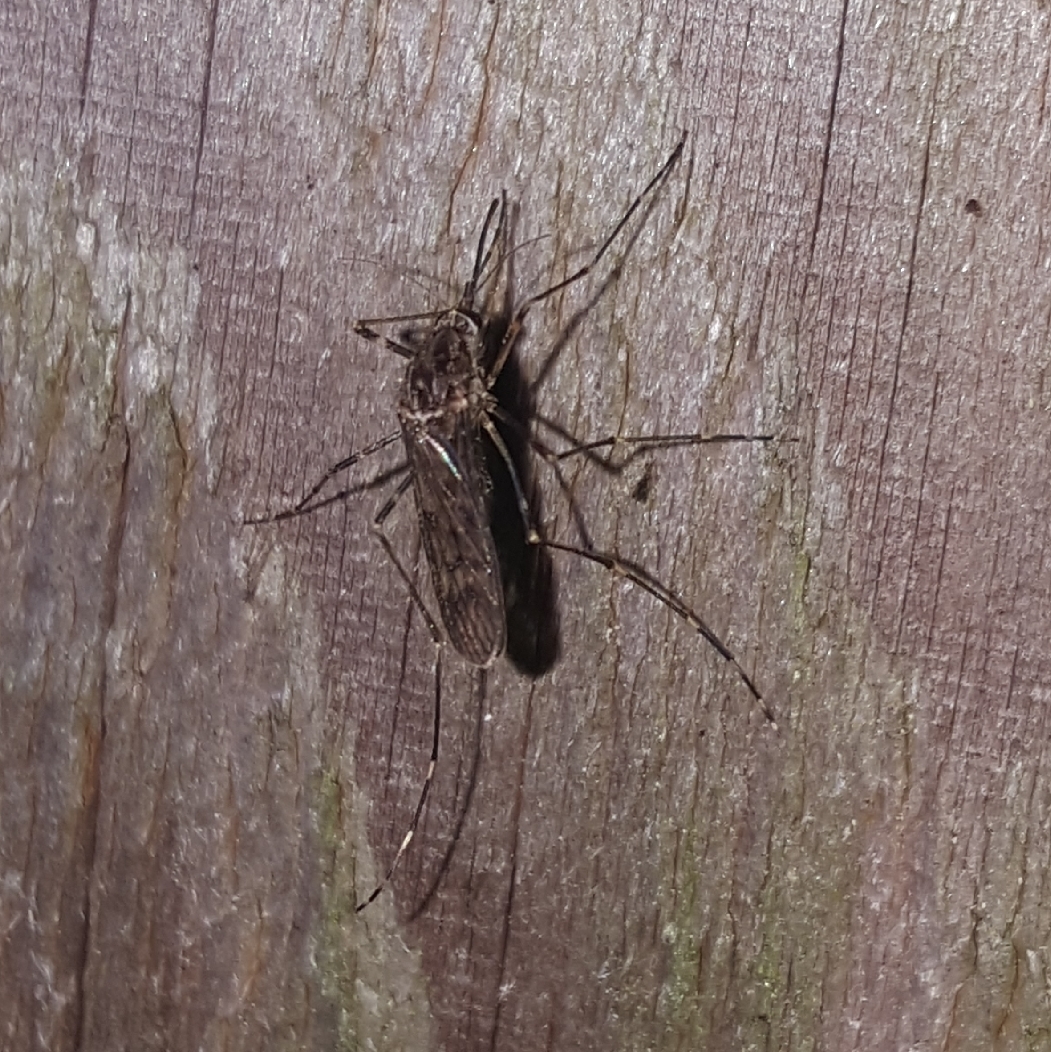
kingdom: Animalia
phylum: Arthropoda
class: Insecta
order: Diptera
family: Culicidae
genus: Culiseta
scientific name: Culiseta particeps
